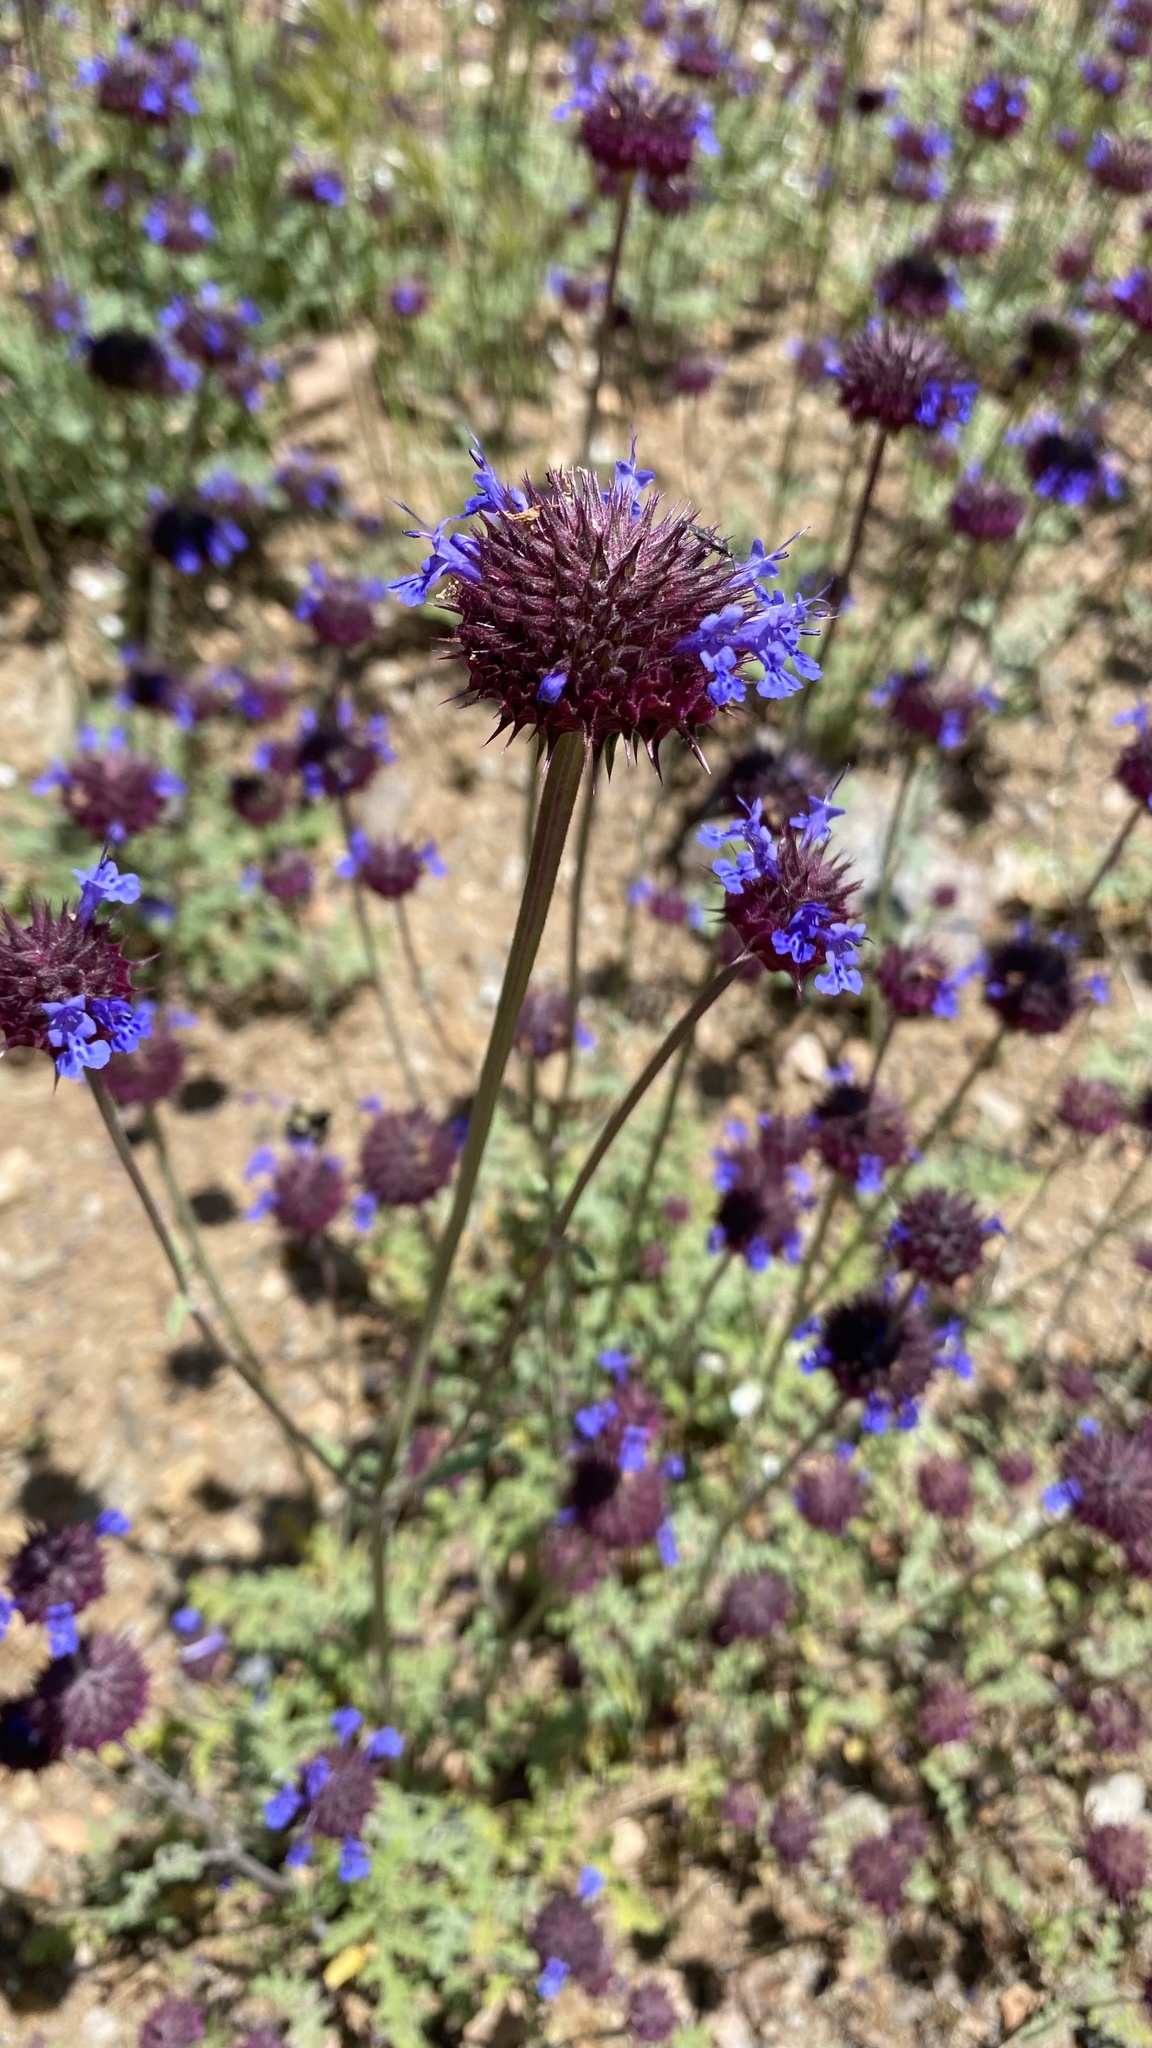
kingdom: Plantae
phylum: Tracheophyta
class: Magnoliopsida
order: Lamiales
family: Lamiaceae
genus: Salvia
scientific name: Salvia columbariae
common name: Chia
